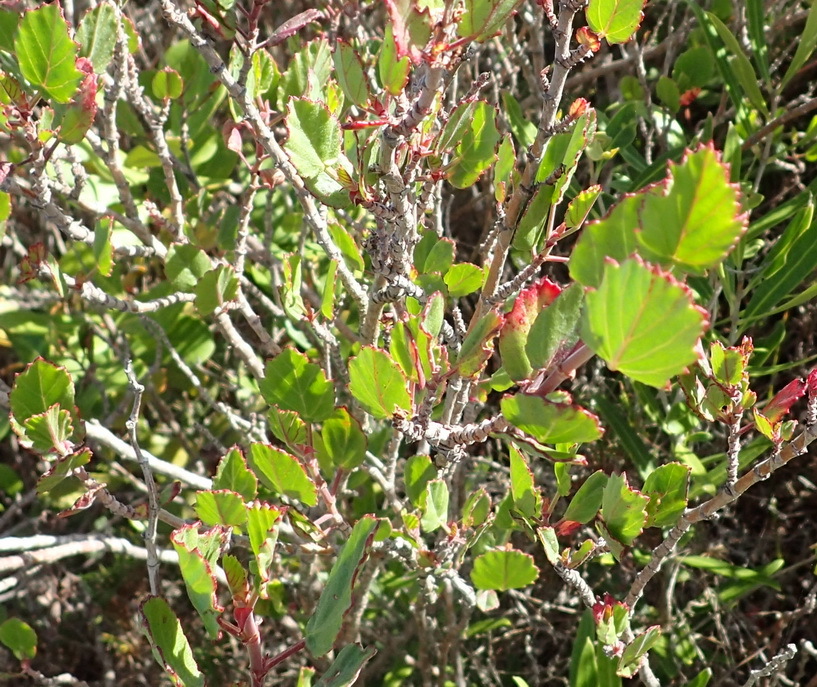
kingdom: Plantae
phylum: Tracheophyta
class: Magnoliopsida
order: Geraniales
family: Geraniaceae
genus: Pelargonium
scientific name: Pelargonium betulinum
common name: Birch-leaf pelargonium
